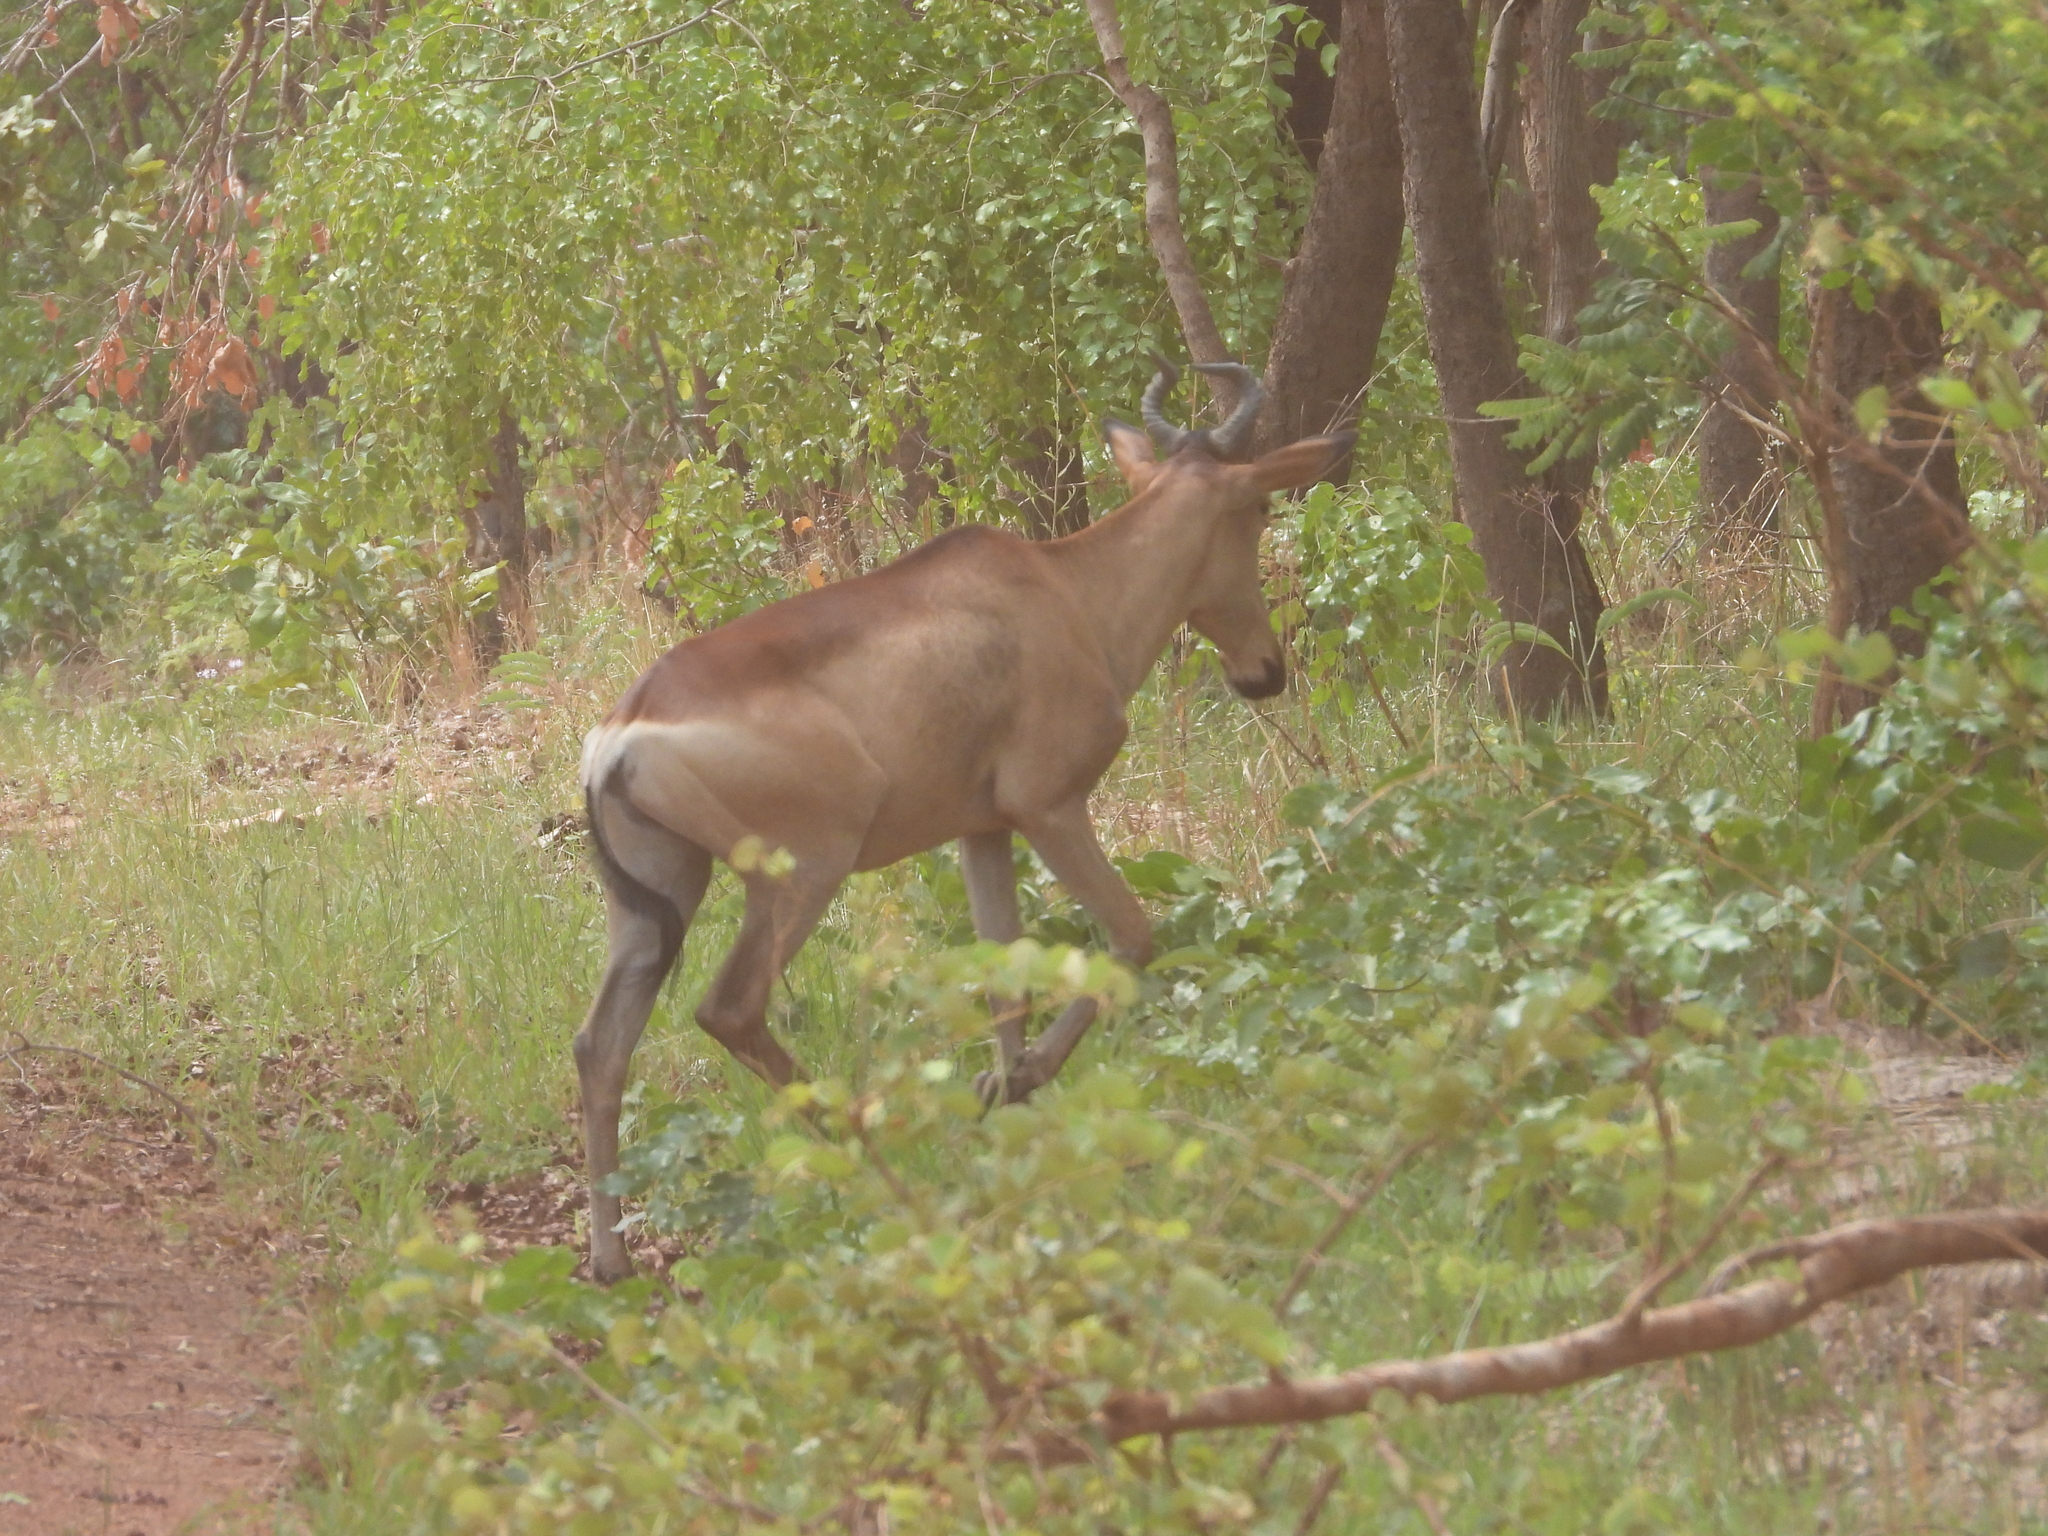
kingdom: Animalia
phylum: Chordata
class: Mammalia
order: Artiodactyla
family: Bovidae
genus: Alcelaphus
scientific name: Alcelaphus buselaphus
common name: Hartebeest
